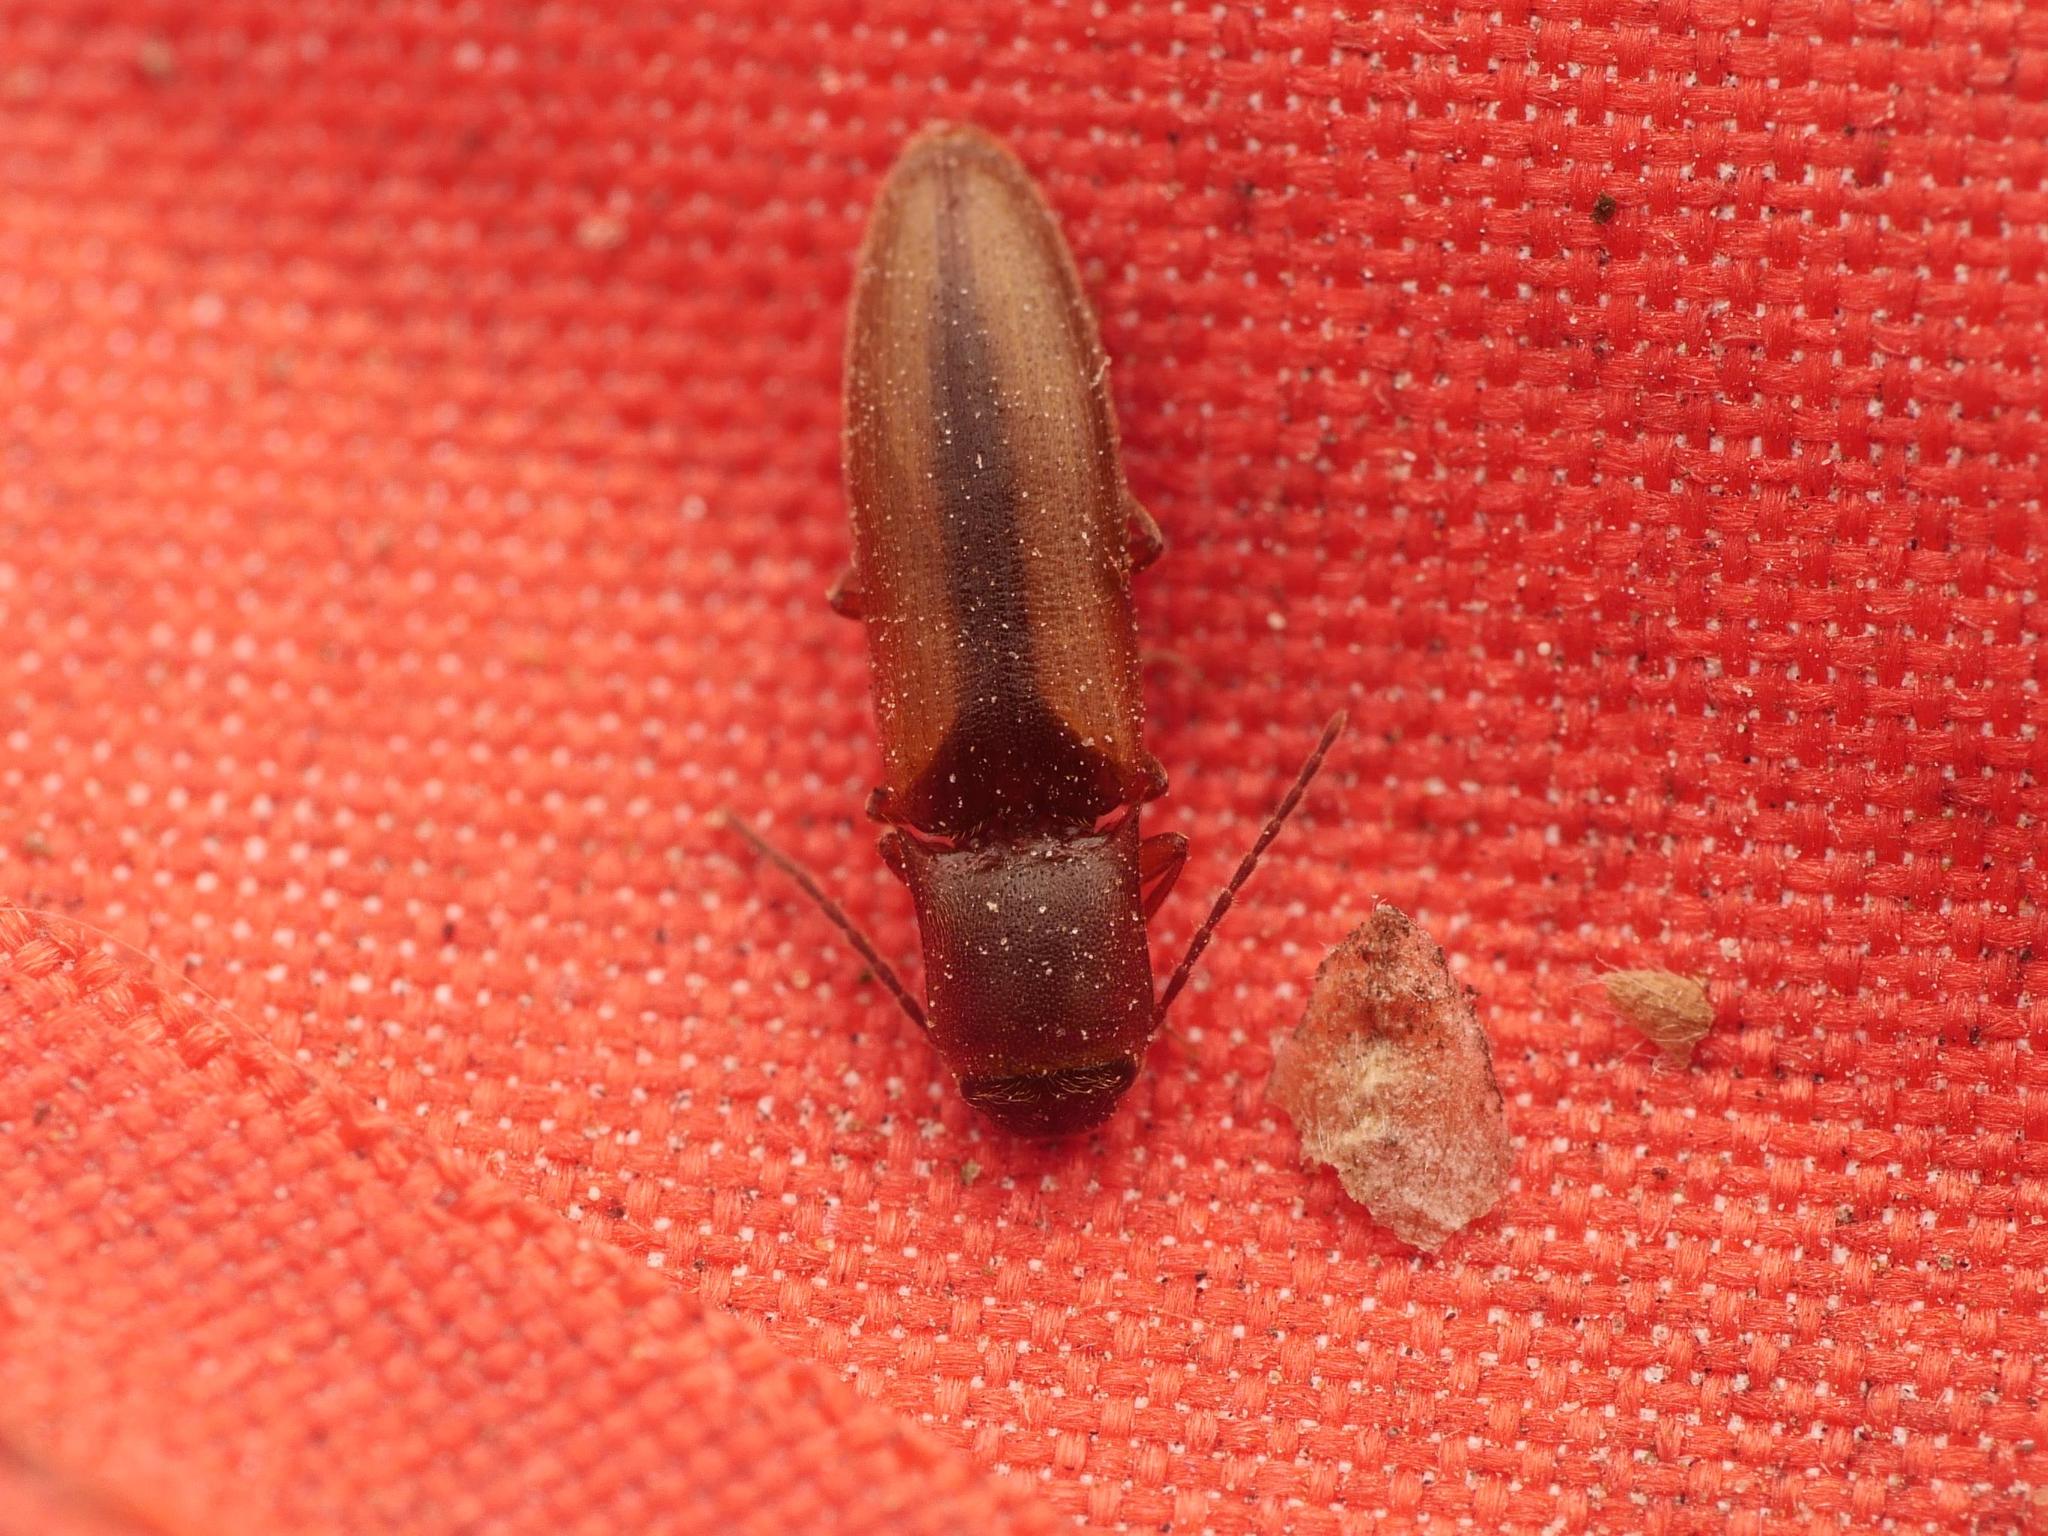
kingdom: Animalia
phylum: Arthropoda
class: Insecta
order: Coleoptera
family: Elateridae
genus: Dalopius
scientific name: Dalopius marginatus
